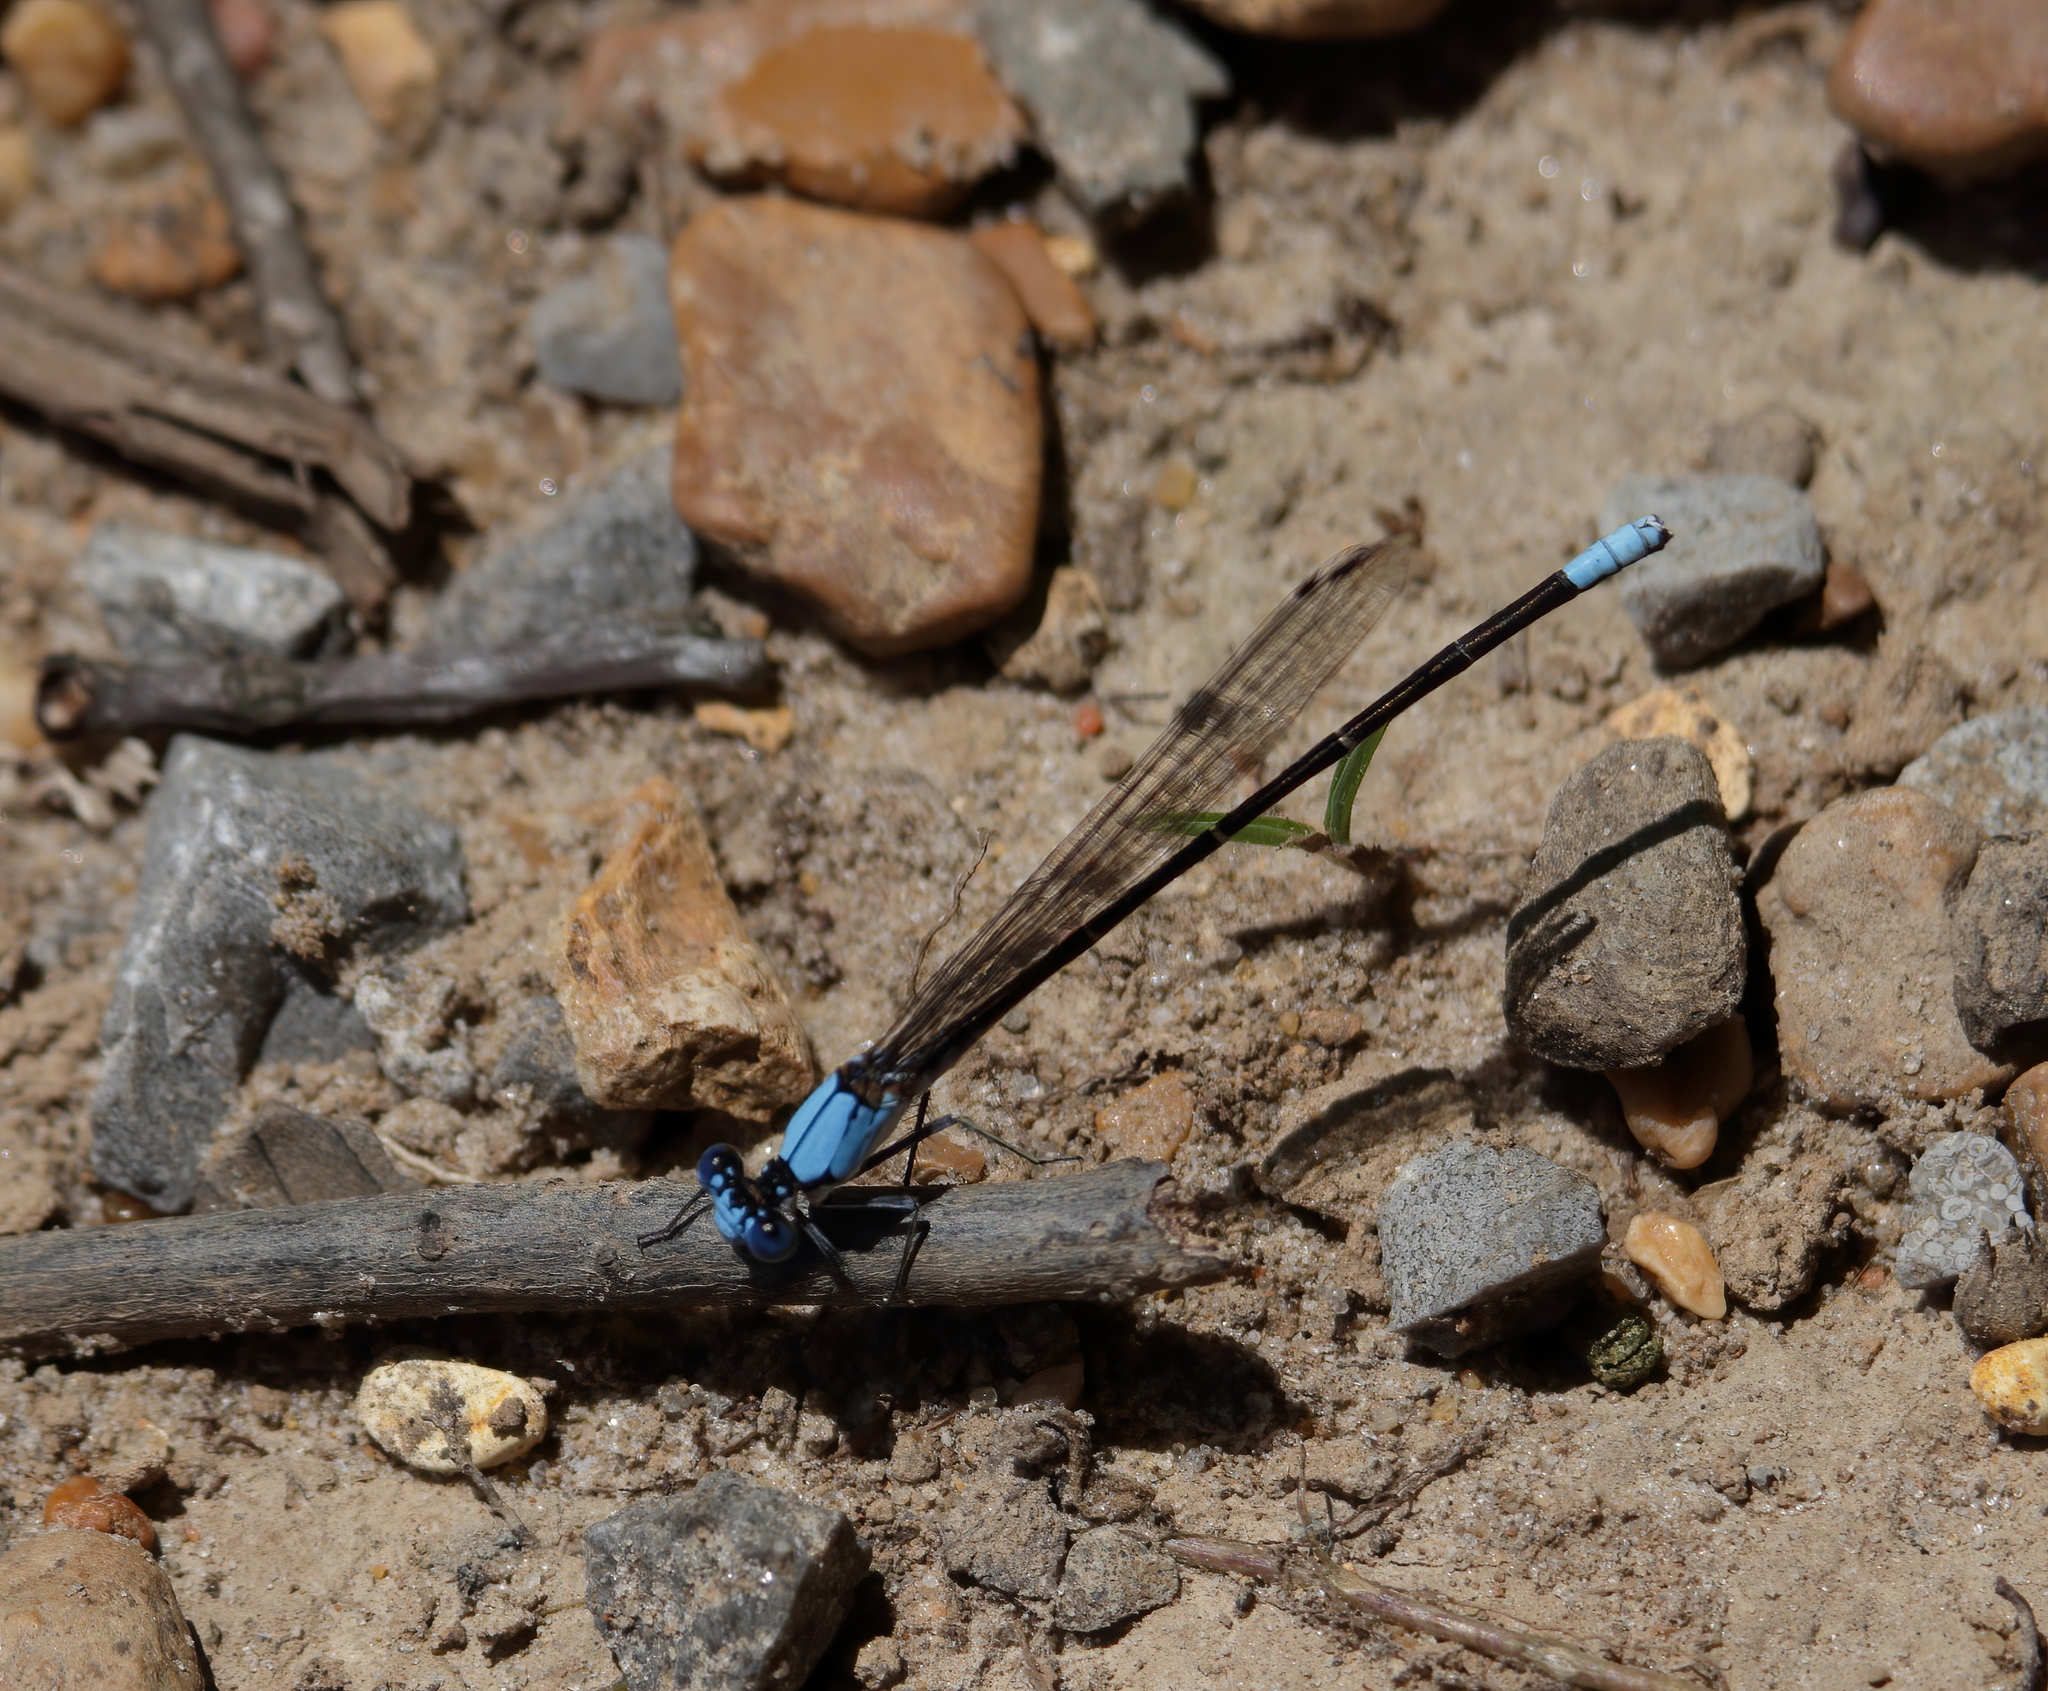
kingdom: Animalia
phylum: Arthropoda
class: Insecta
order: Odonata
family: Coenagrionidae
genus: Argia
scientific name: Argia apicalis
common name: Blue-fronted dancer
